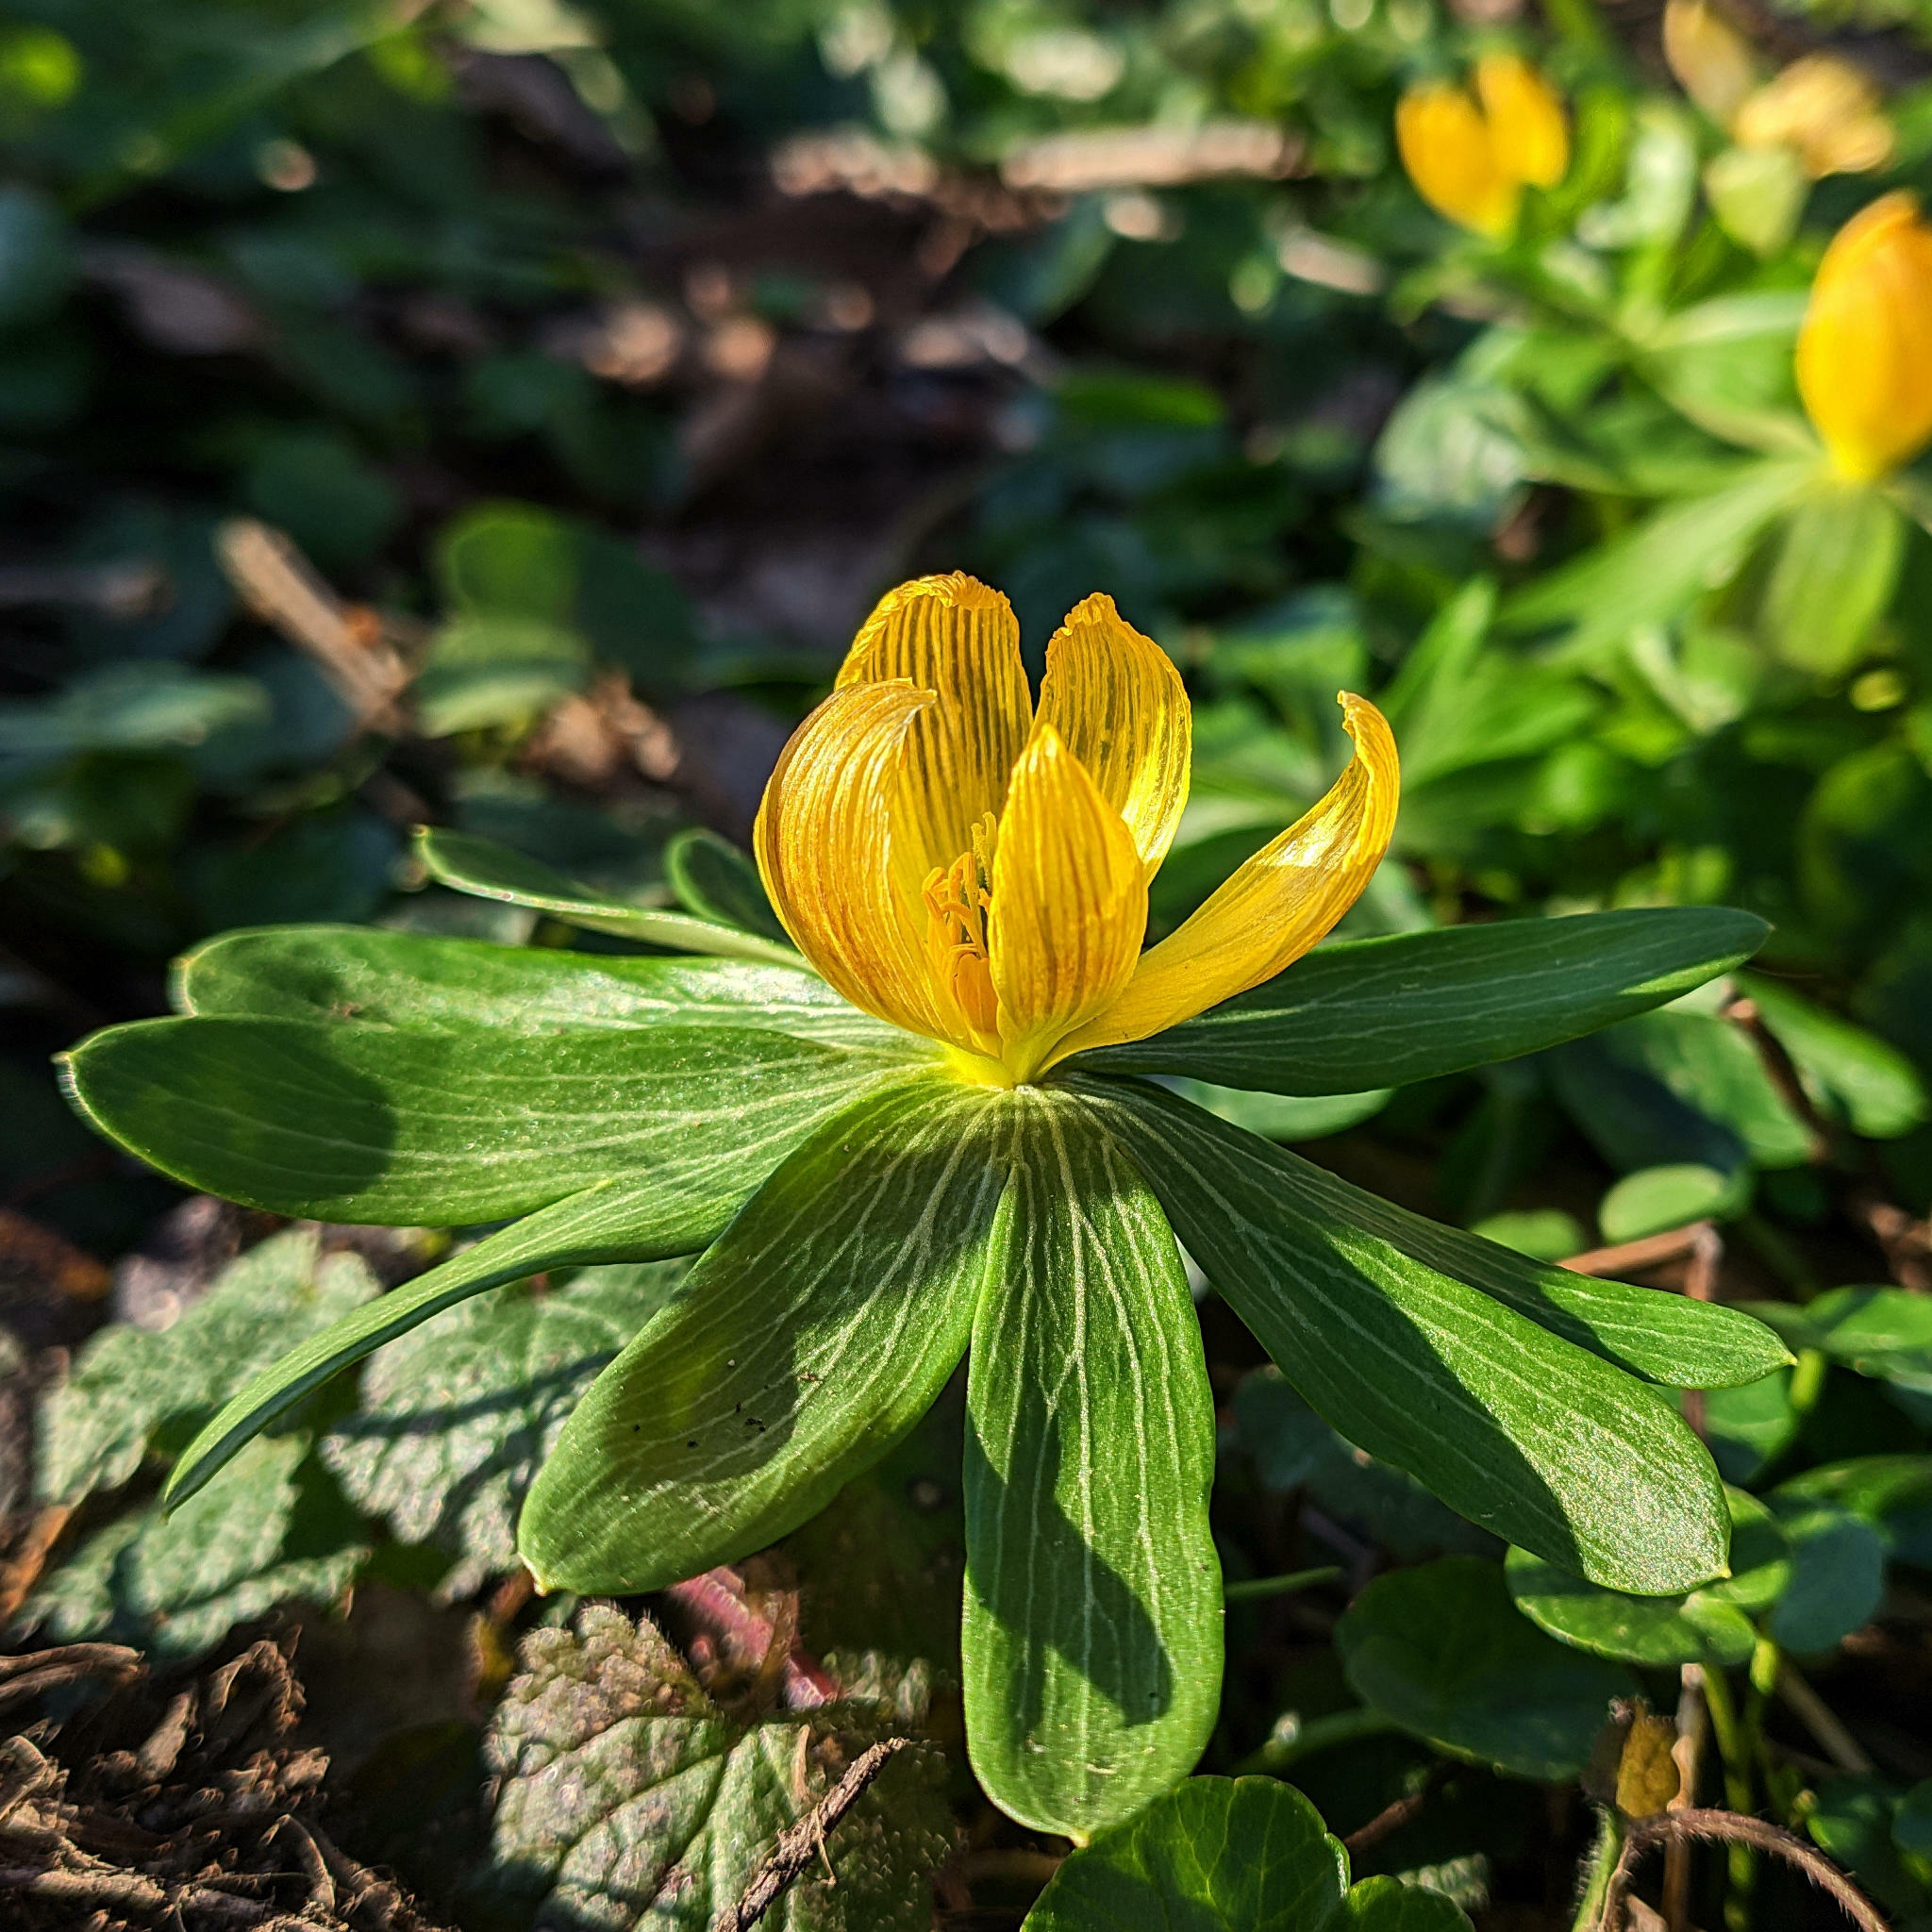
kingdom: Plantae
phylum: Tracheophyta
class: Magnoliopsida
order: Ranunculales
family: Ranunculaceae
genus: Eranthis
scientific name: Eranthis hyemalis
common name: Winter aconite
